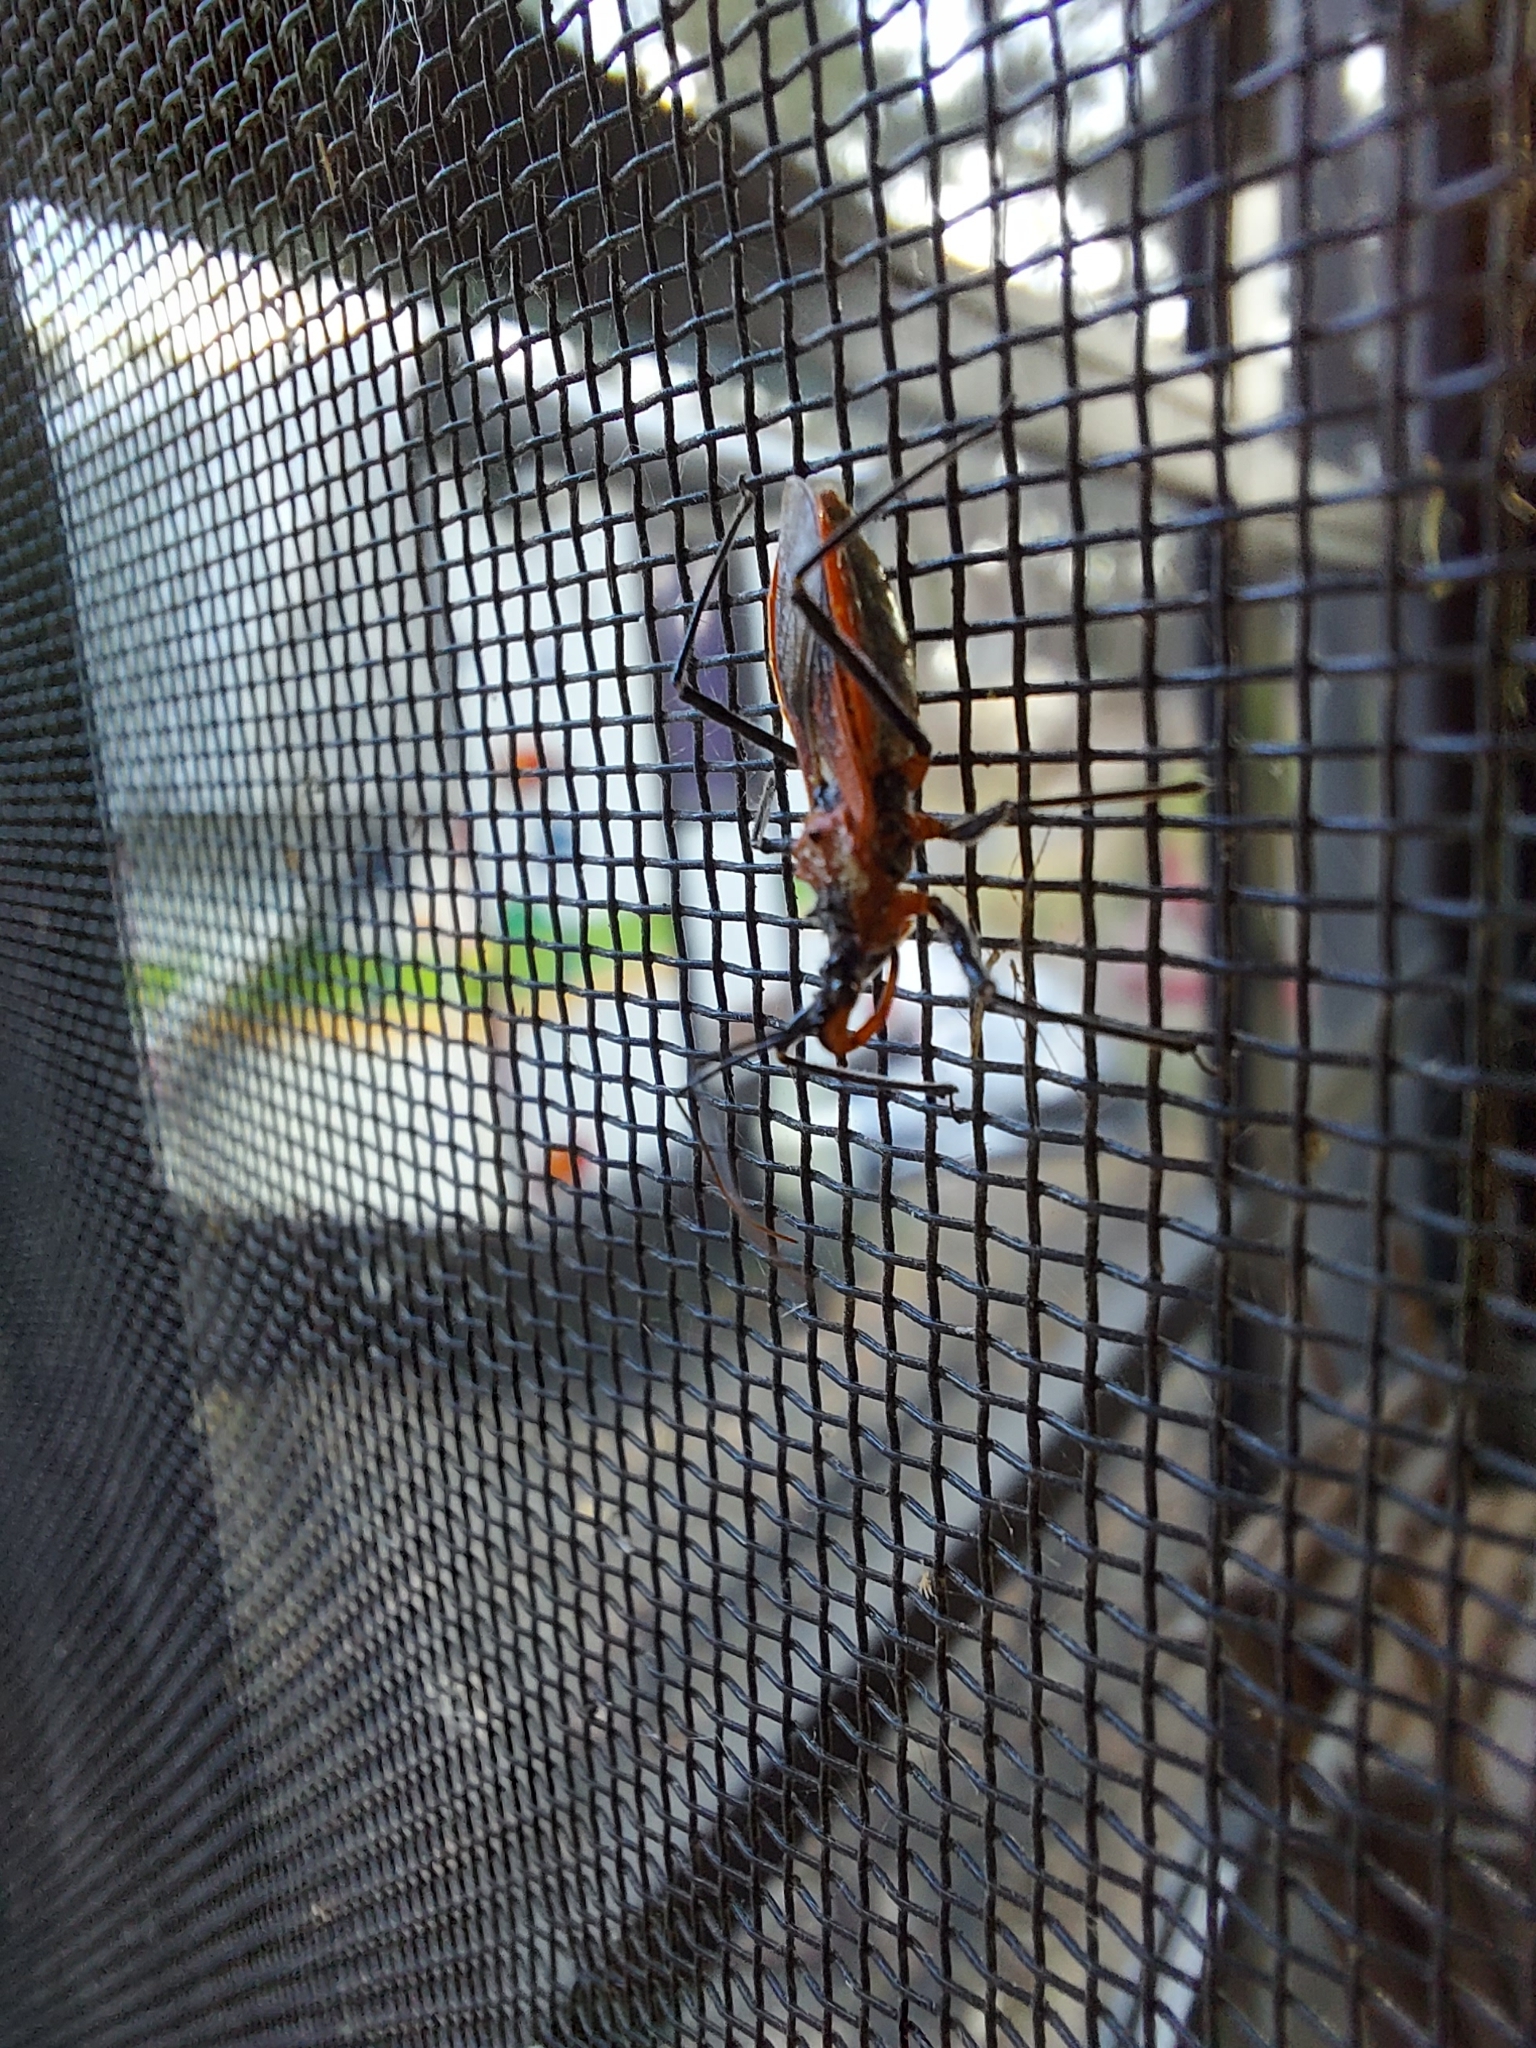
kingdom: Animalia
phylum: Arthropoda
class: Insecta
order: Hemiptera
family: Reduviidae
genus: Gminatus
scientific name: Gminatus australis
